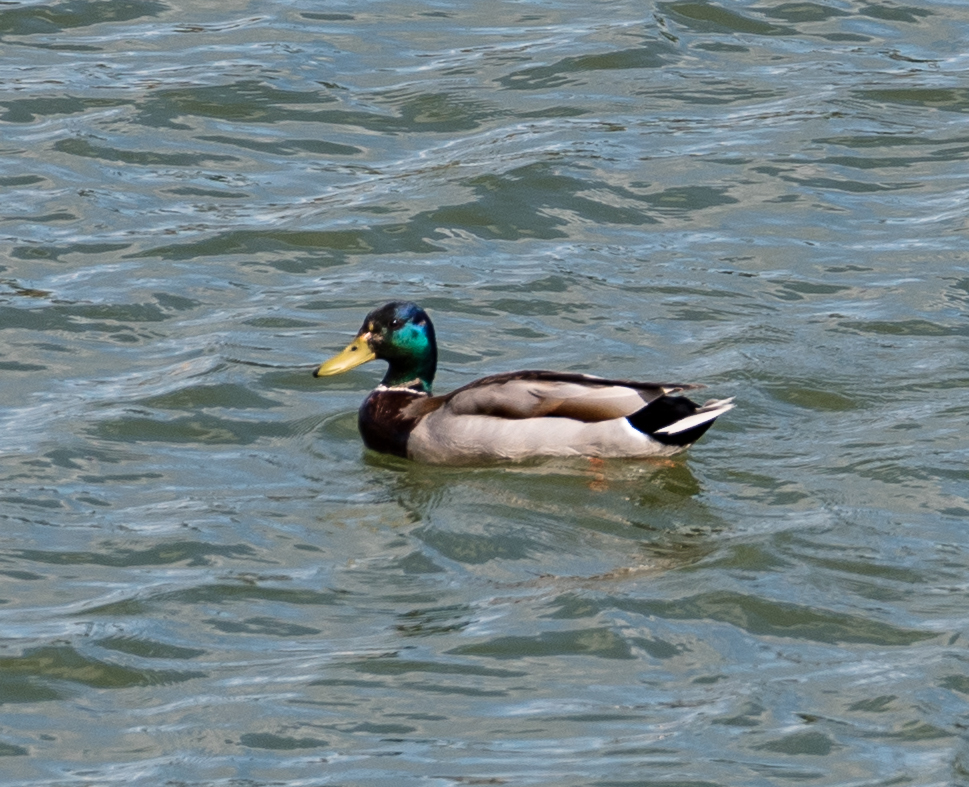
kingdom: Animalia
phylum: Chordata
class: Aves
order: Anseriformes
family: Anatidae
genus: Anas
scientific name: Anas platyrhynchos
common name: Mallard
